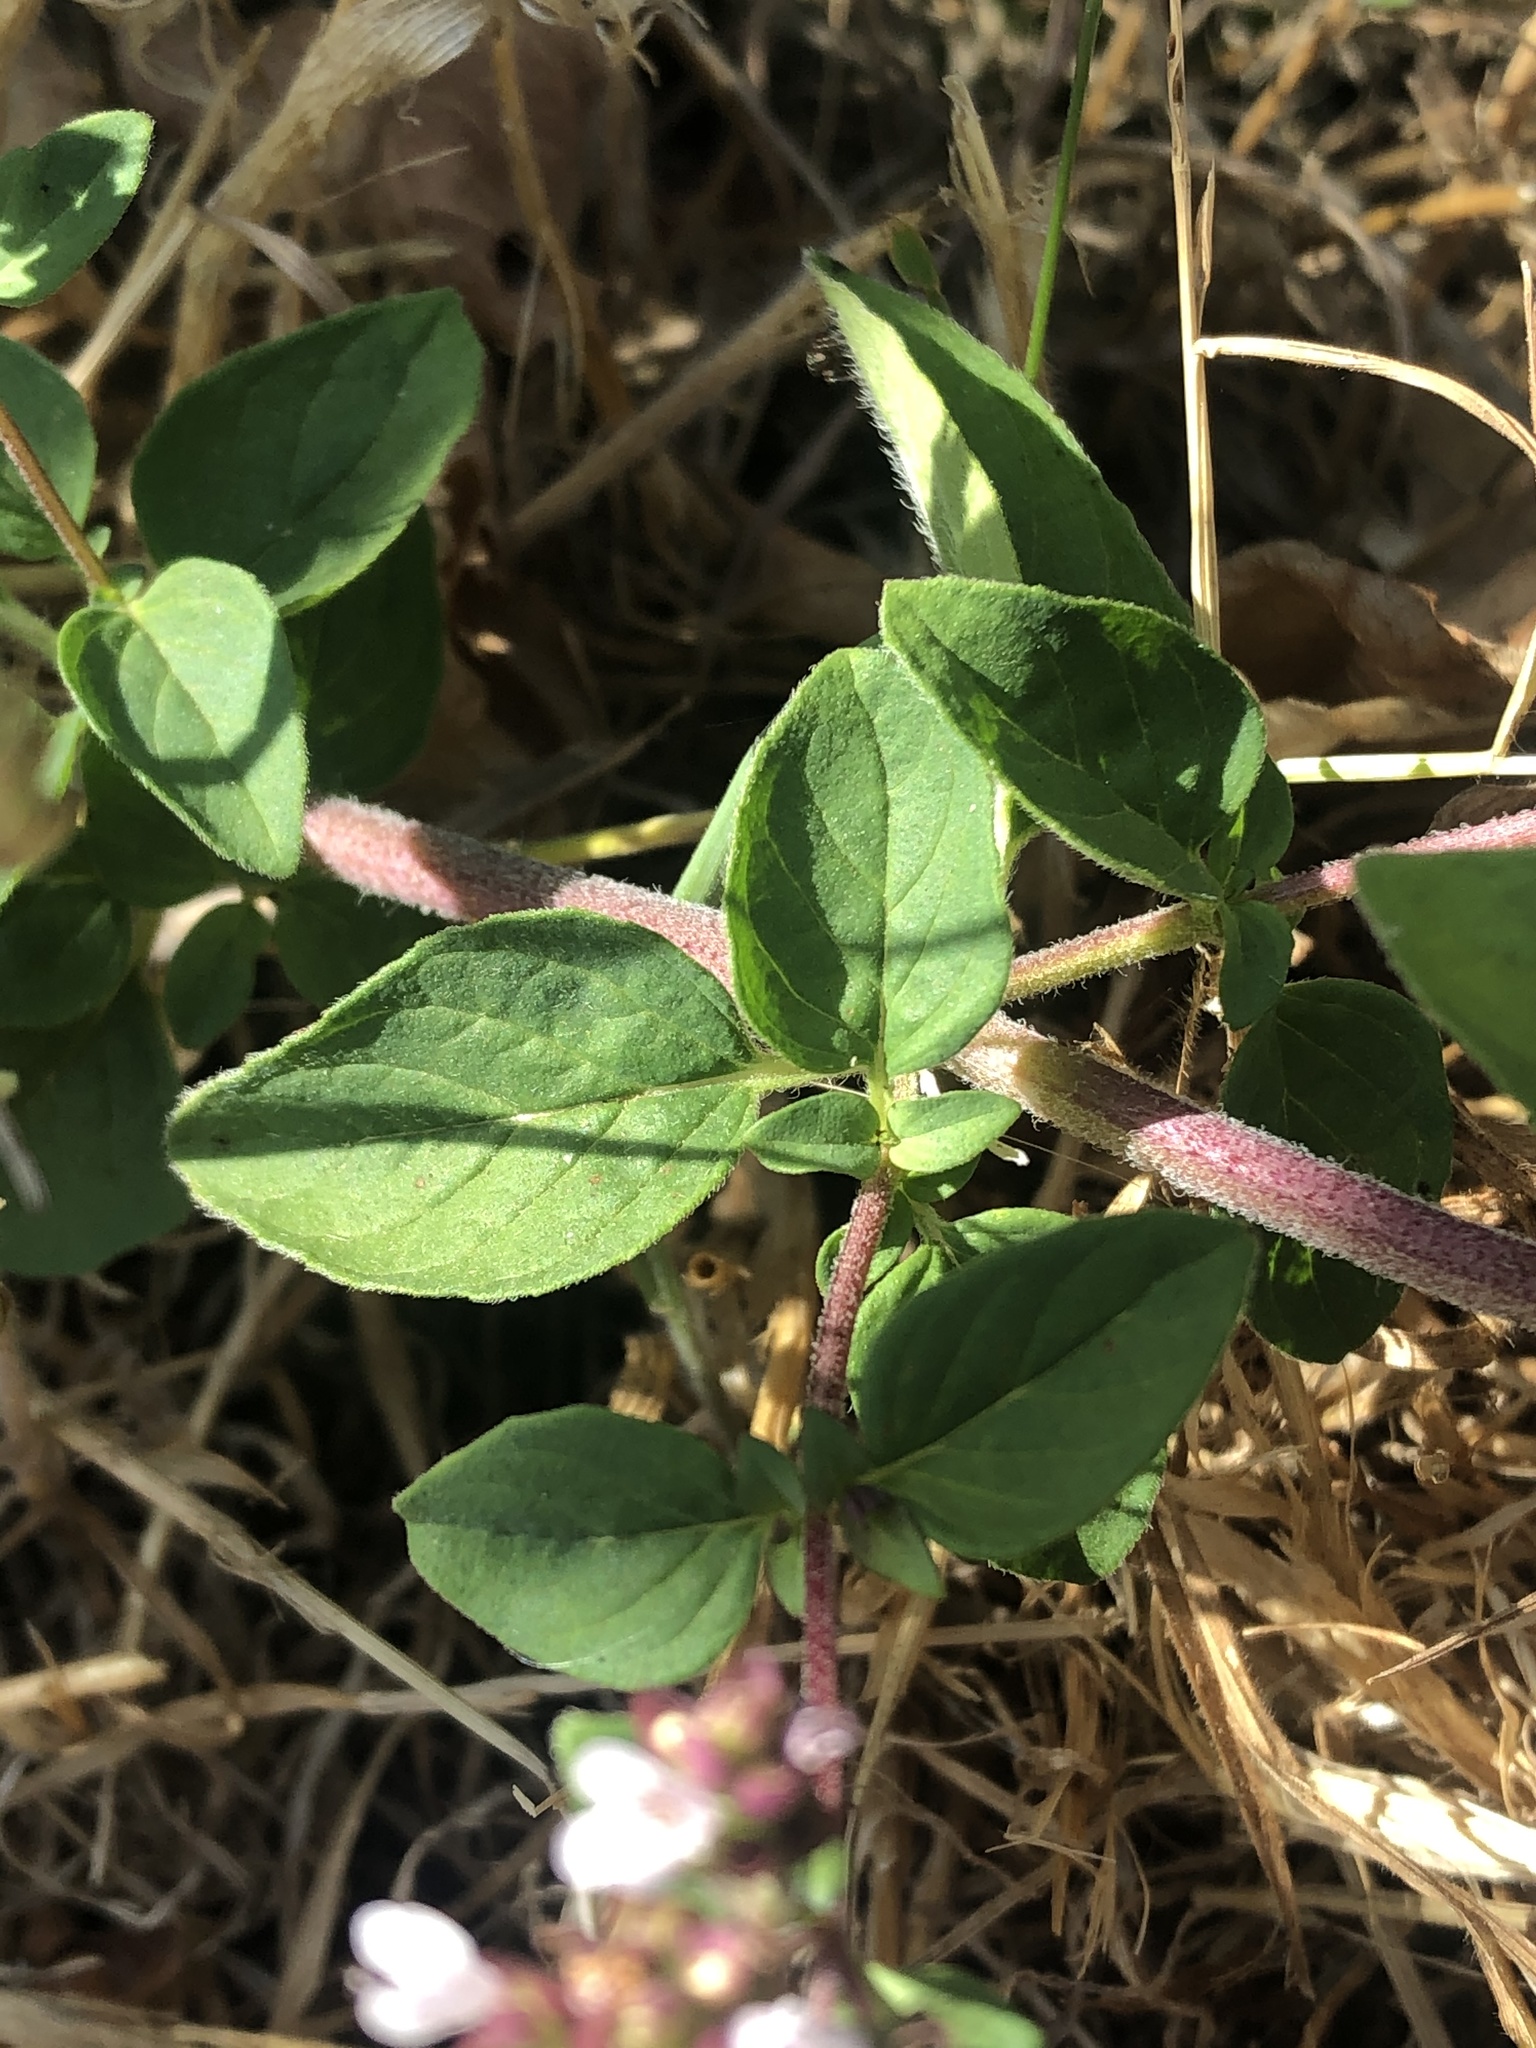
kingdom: Plantae
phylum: Tracheophyta
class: Magnoliopsida
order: Lamiales
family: Lamiaceae
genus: Origanum
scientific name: Origanum vulgare
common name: Wild marjoram
